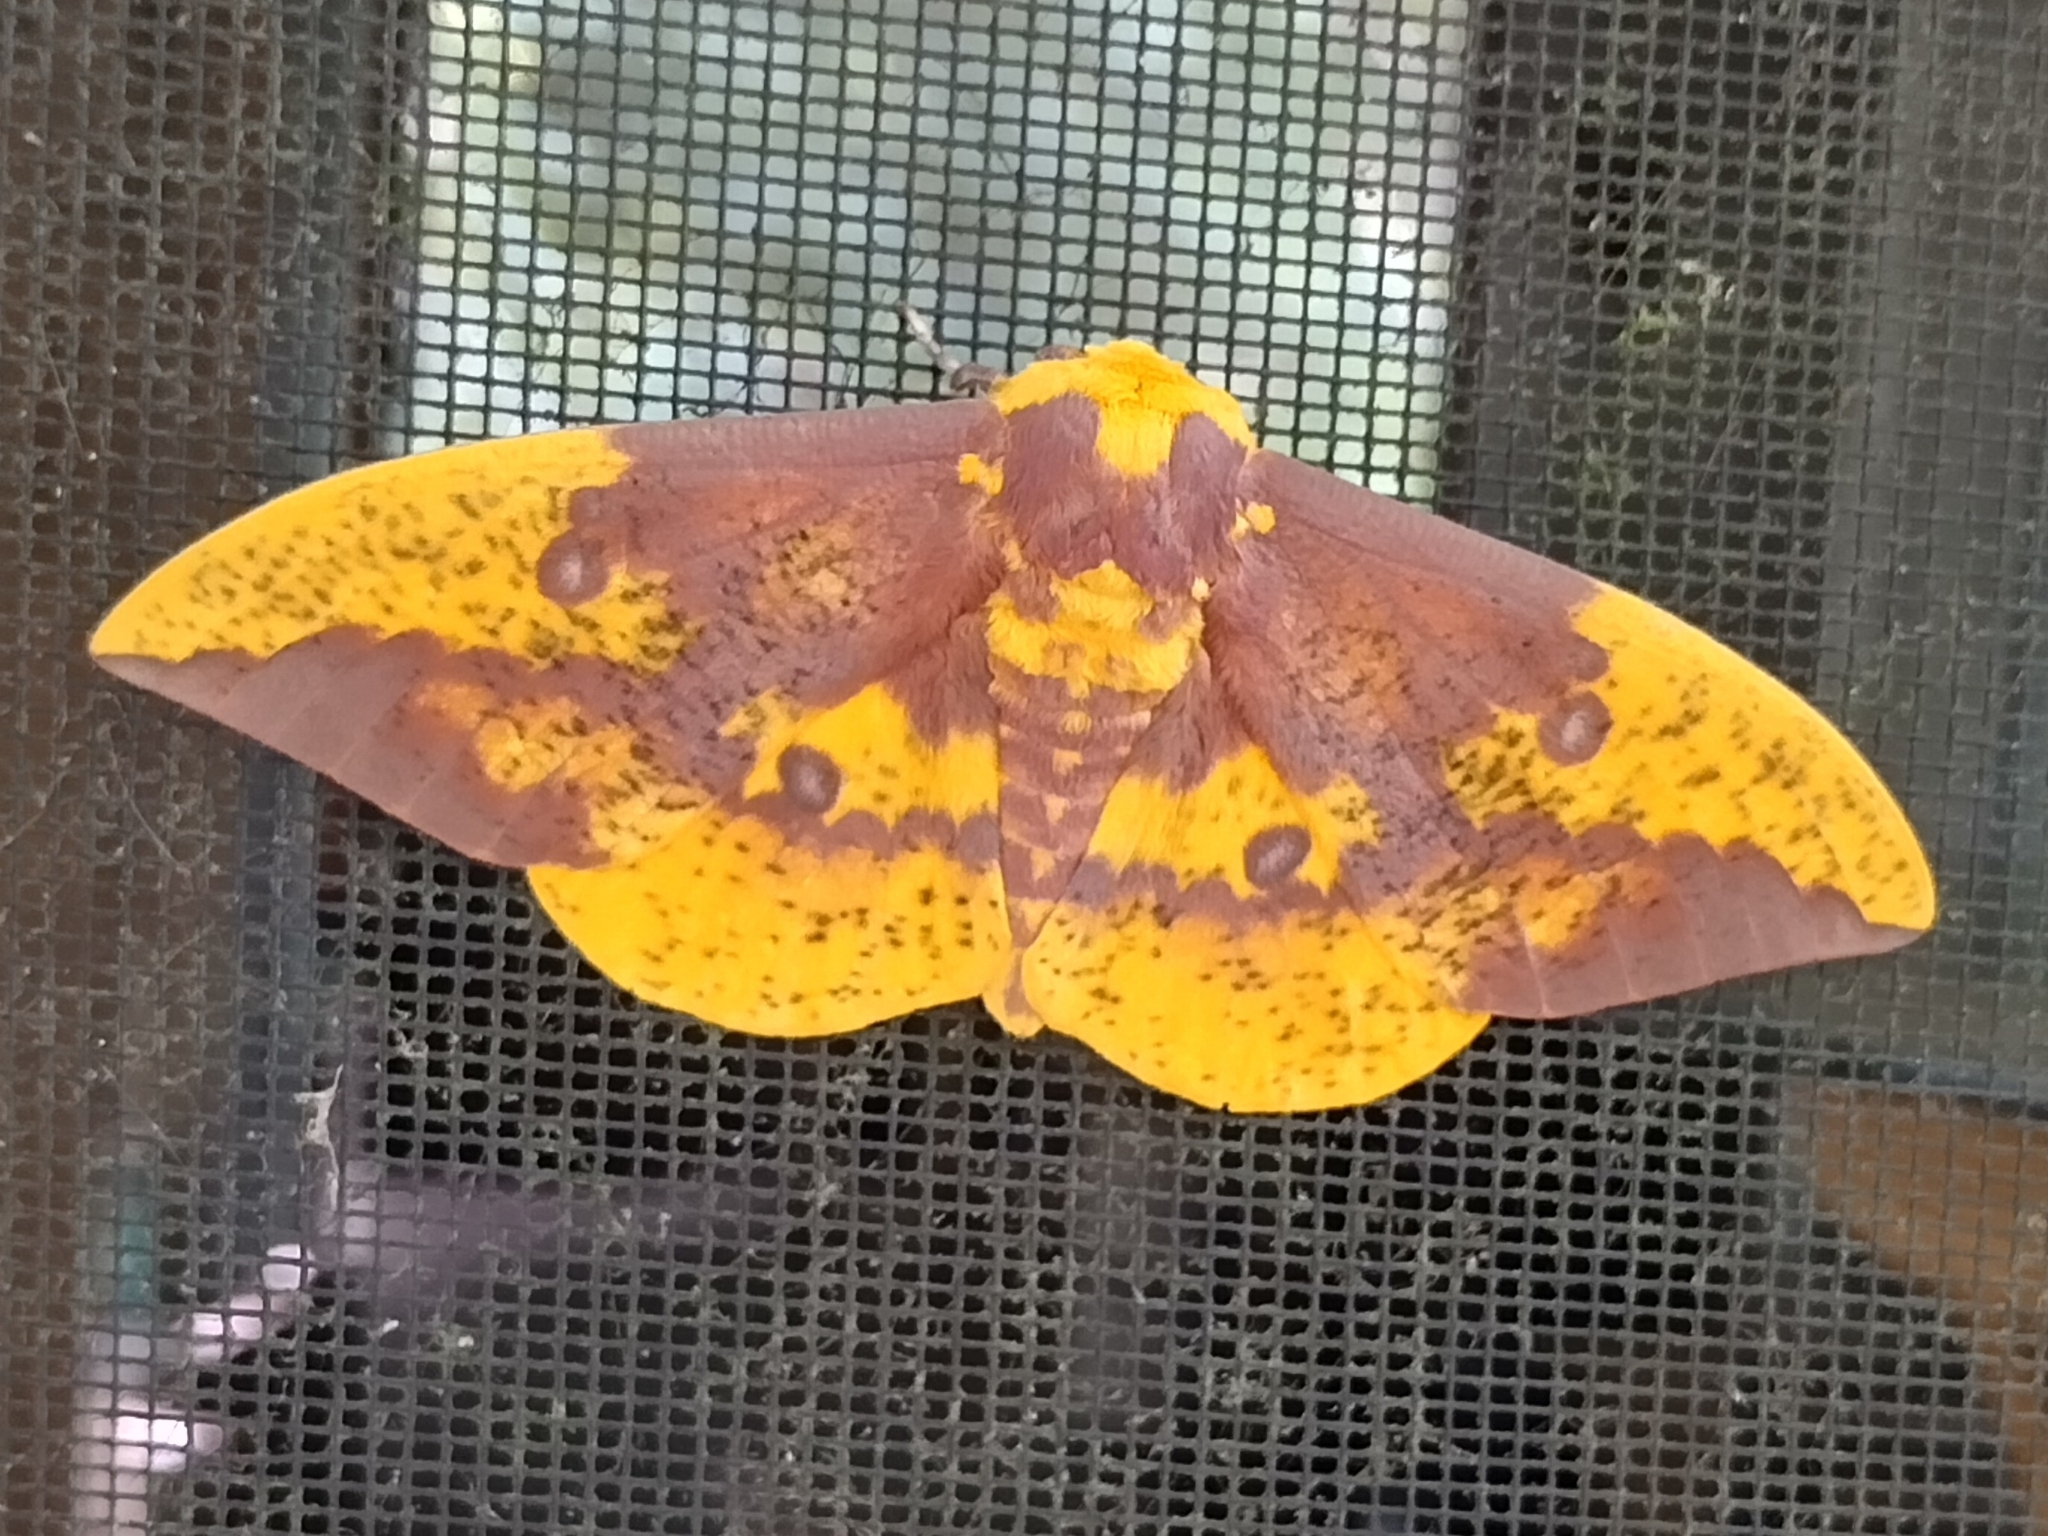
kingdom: Animalia
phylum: Arthropoda
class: Insecta
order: Lepidoptera
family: Saturniidae
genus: Eacles
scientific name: Eacles imperialis
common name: Imperial moth
